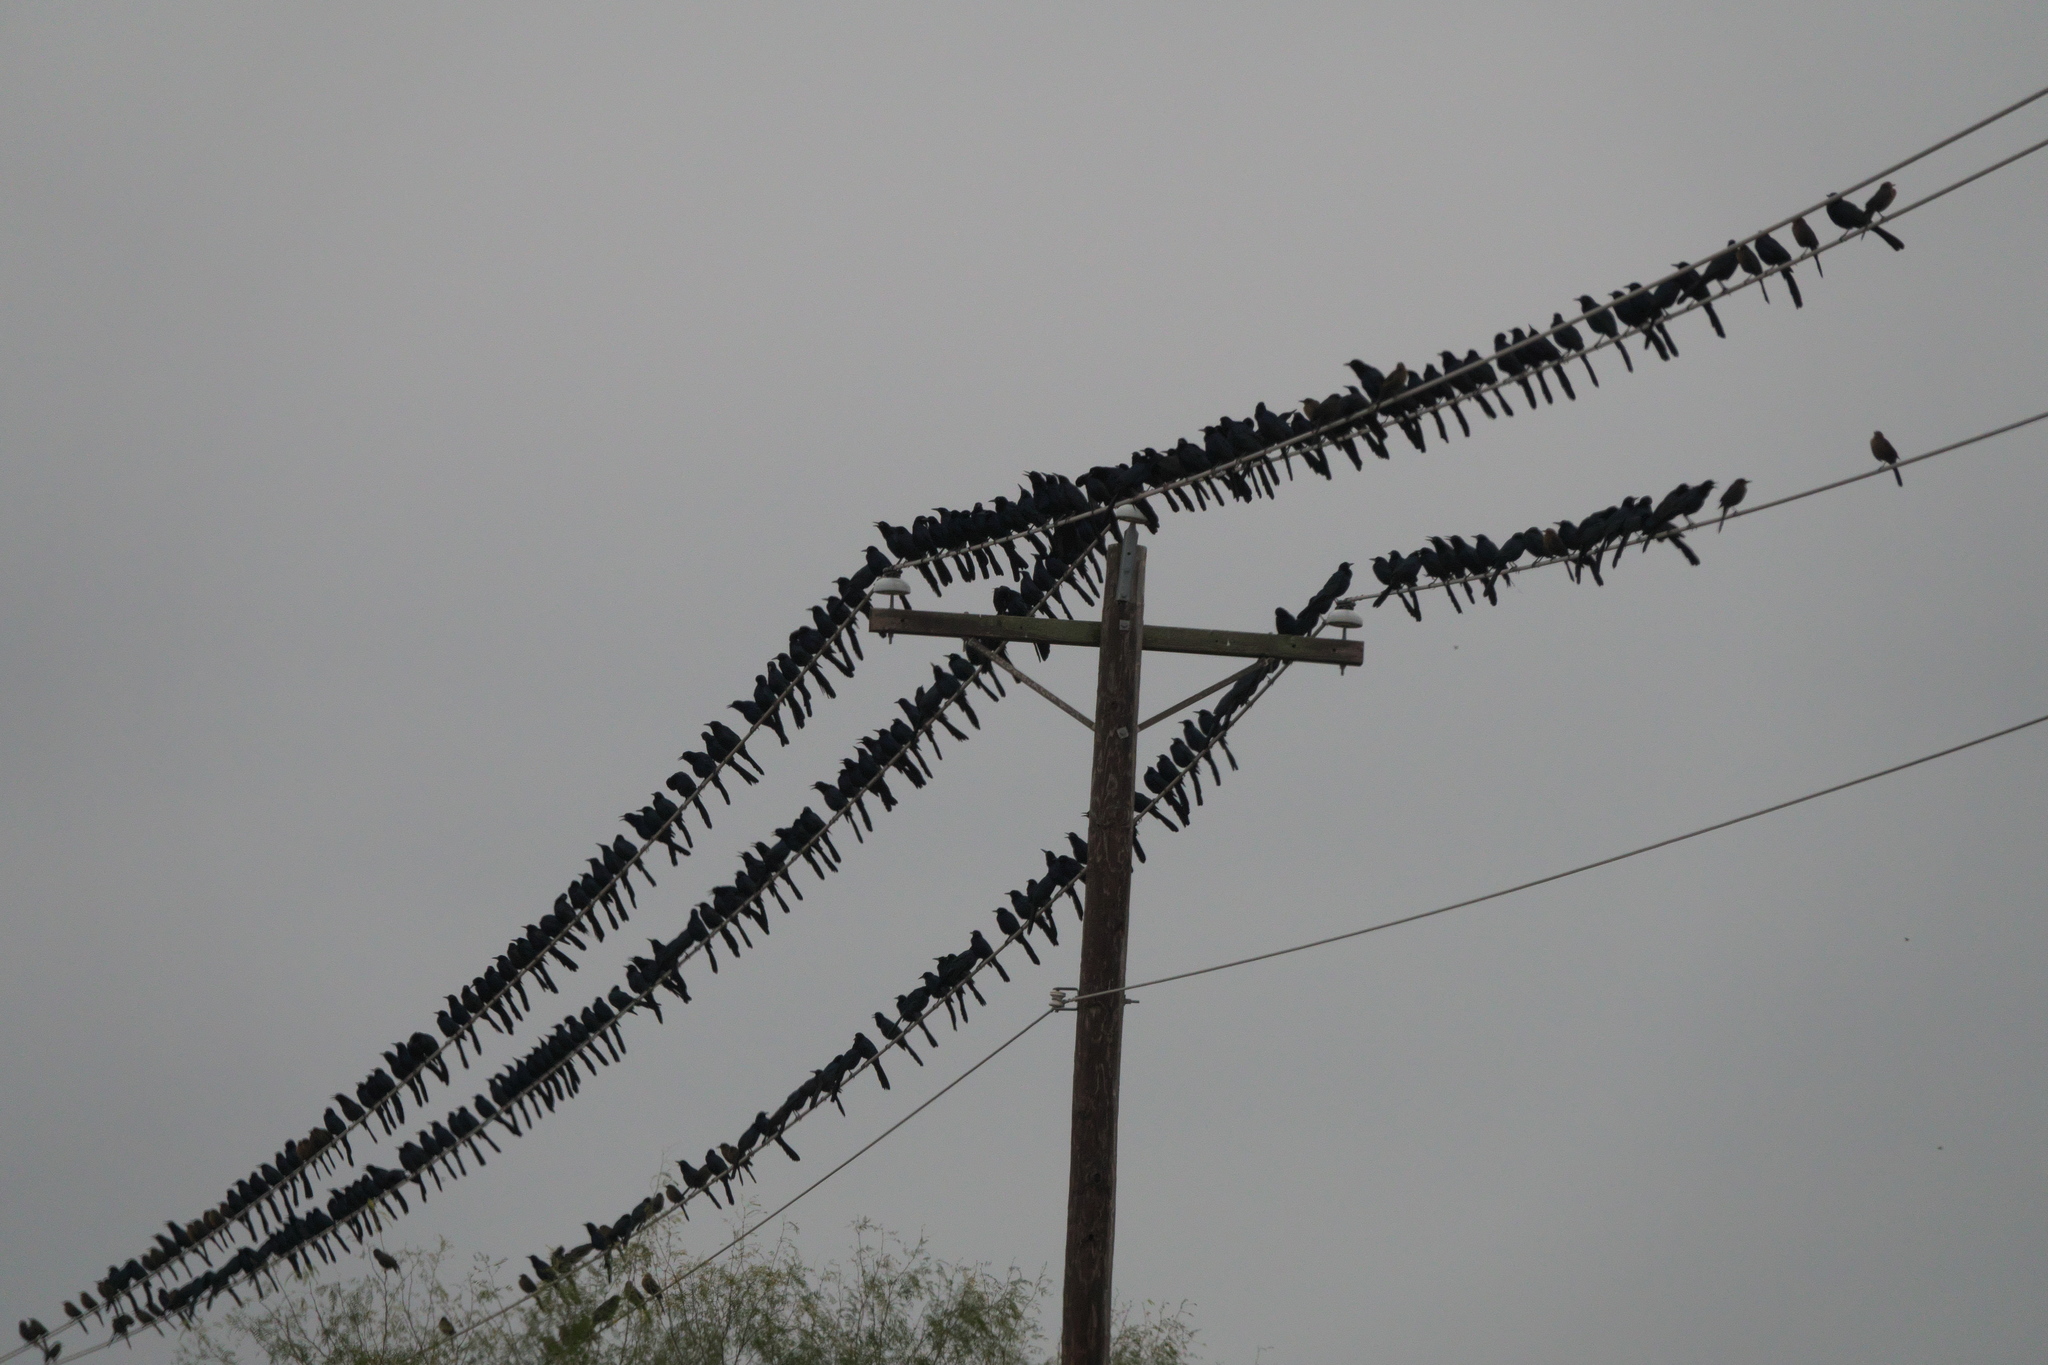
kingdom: Animalia
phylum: Chordata
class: Aves
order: Passeriformes
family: Icteridae
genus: Quiscalus
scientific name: Quiscalus mexicanus
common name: Great-tailed grackle
